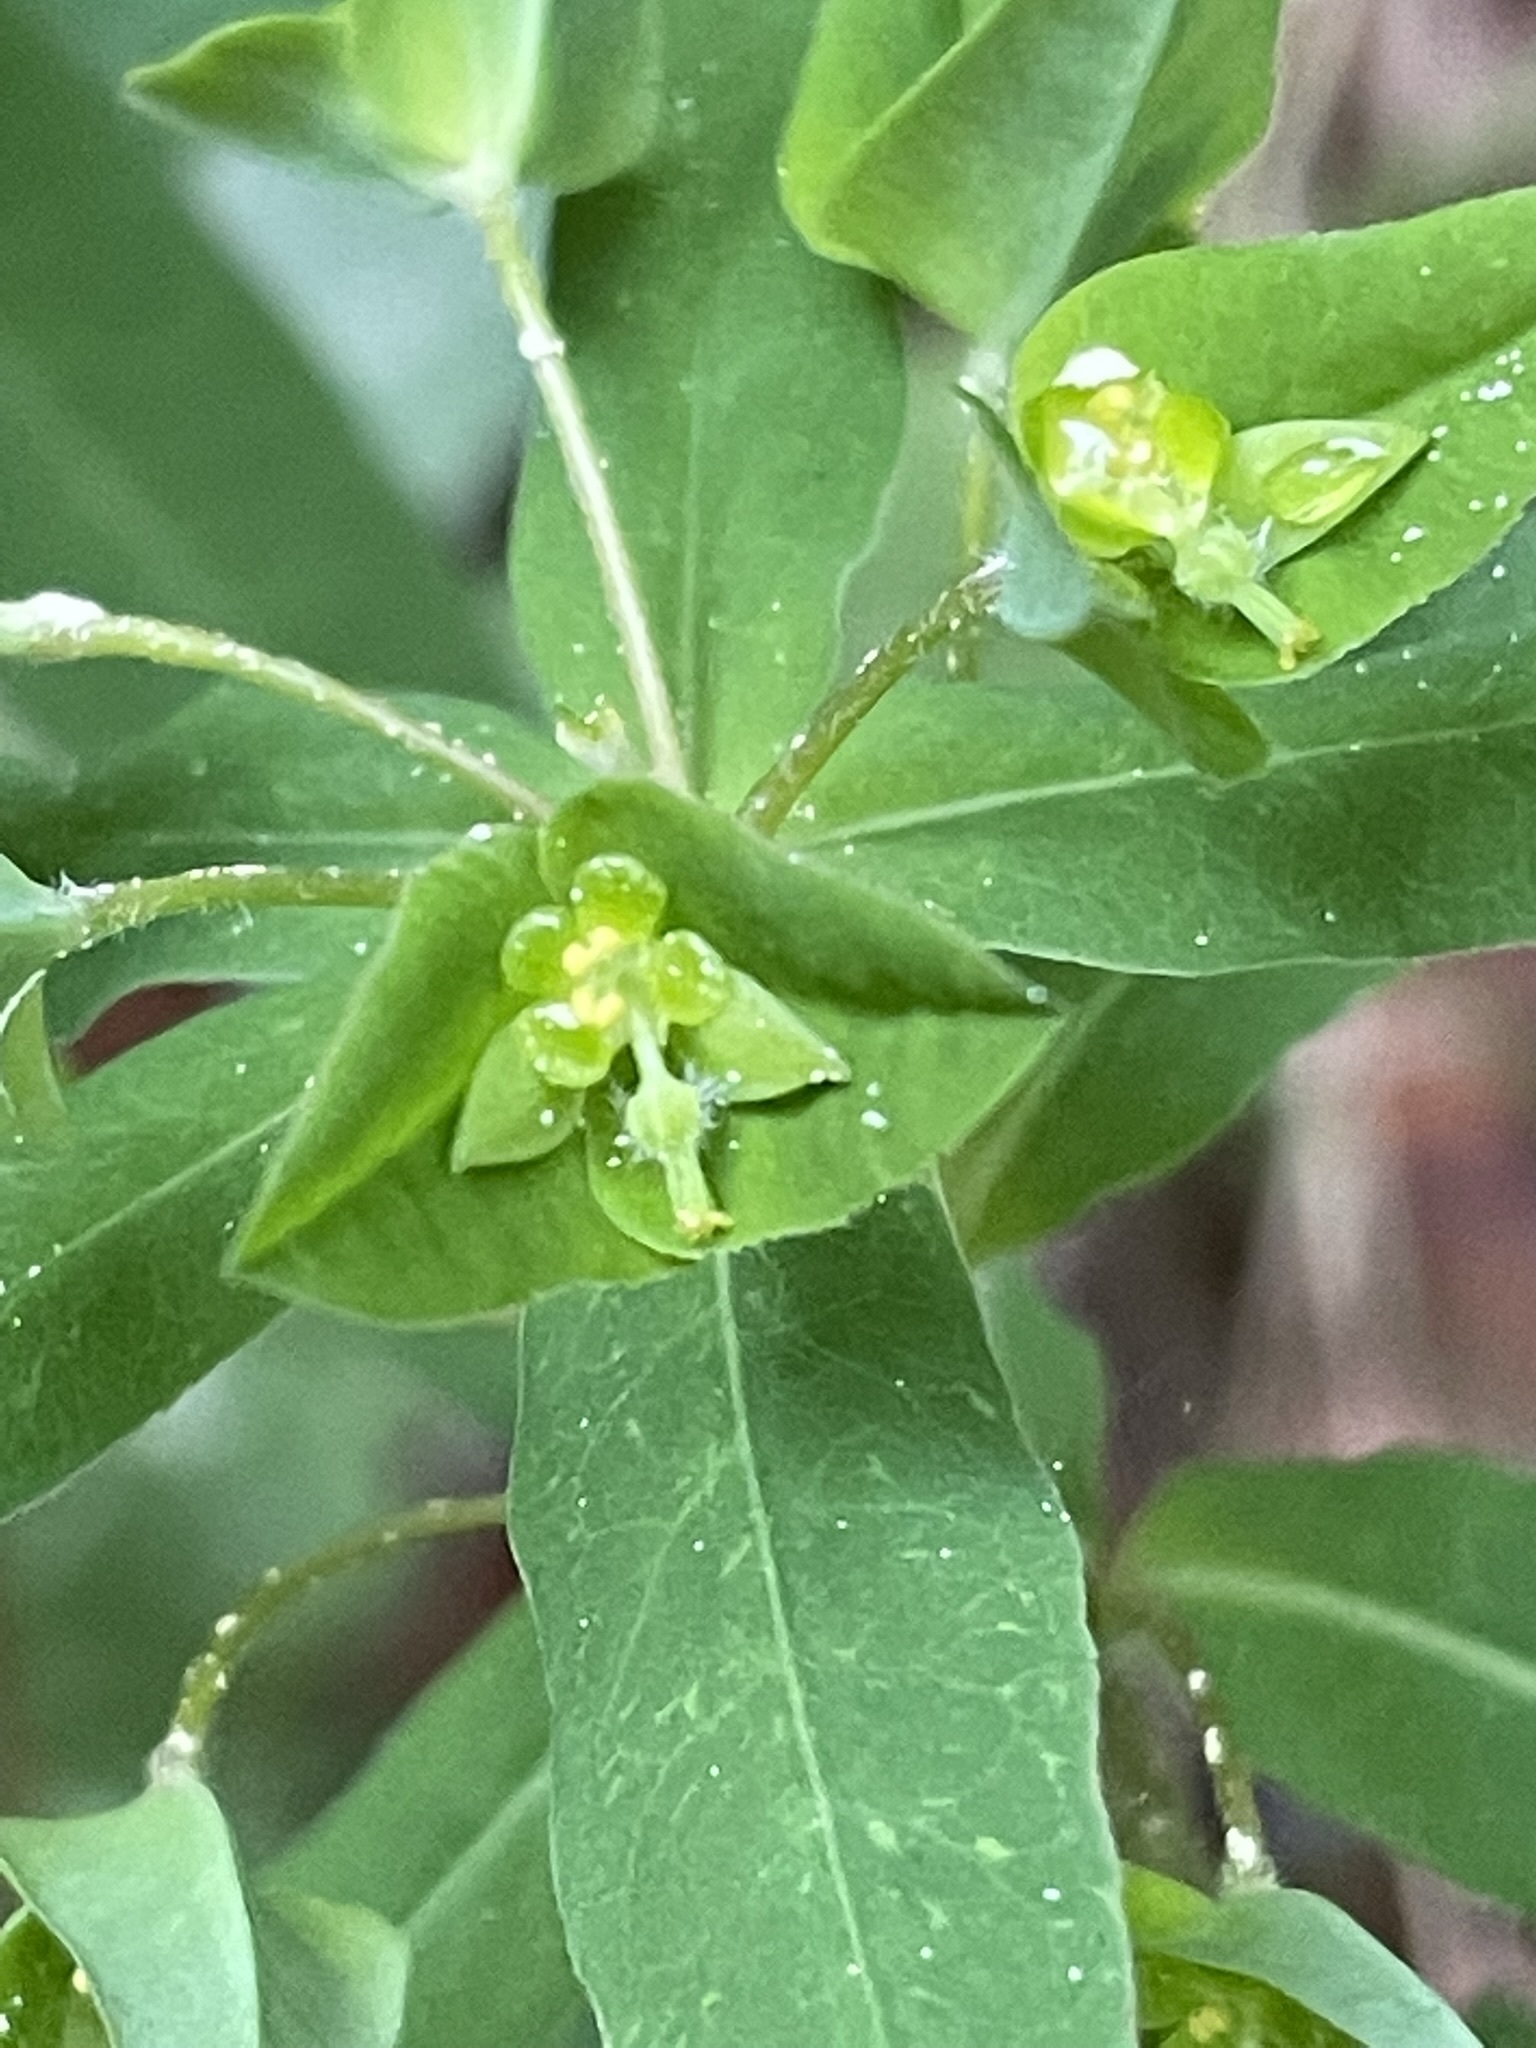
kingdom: Plantae
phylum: Tracheophyta
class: Magnoliopsida
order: Malpighiales
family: Euphorbiaceae
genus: Euphorbia
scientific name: Euphorbia dulcis
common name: Sweet spurge
